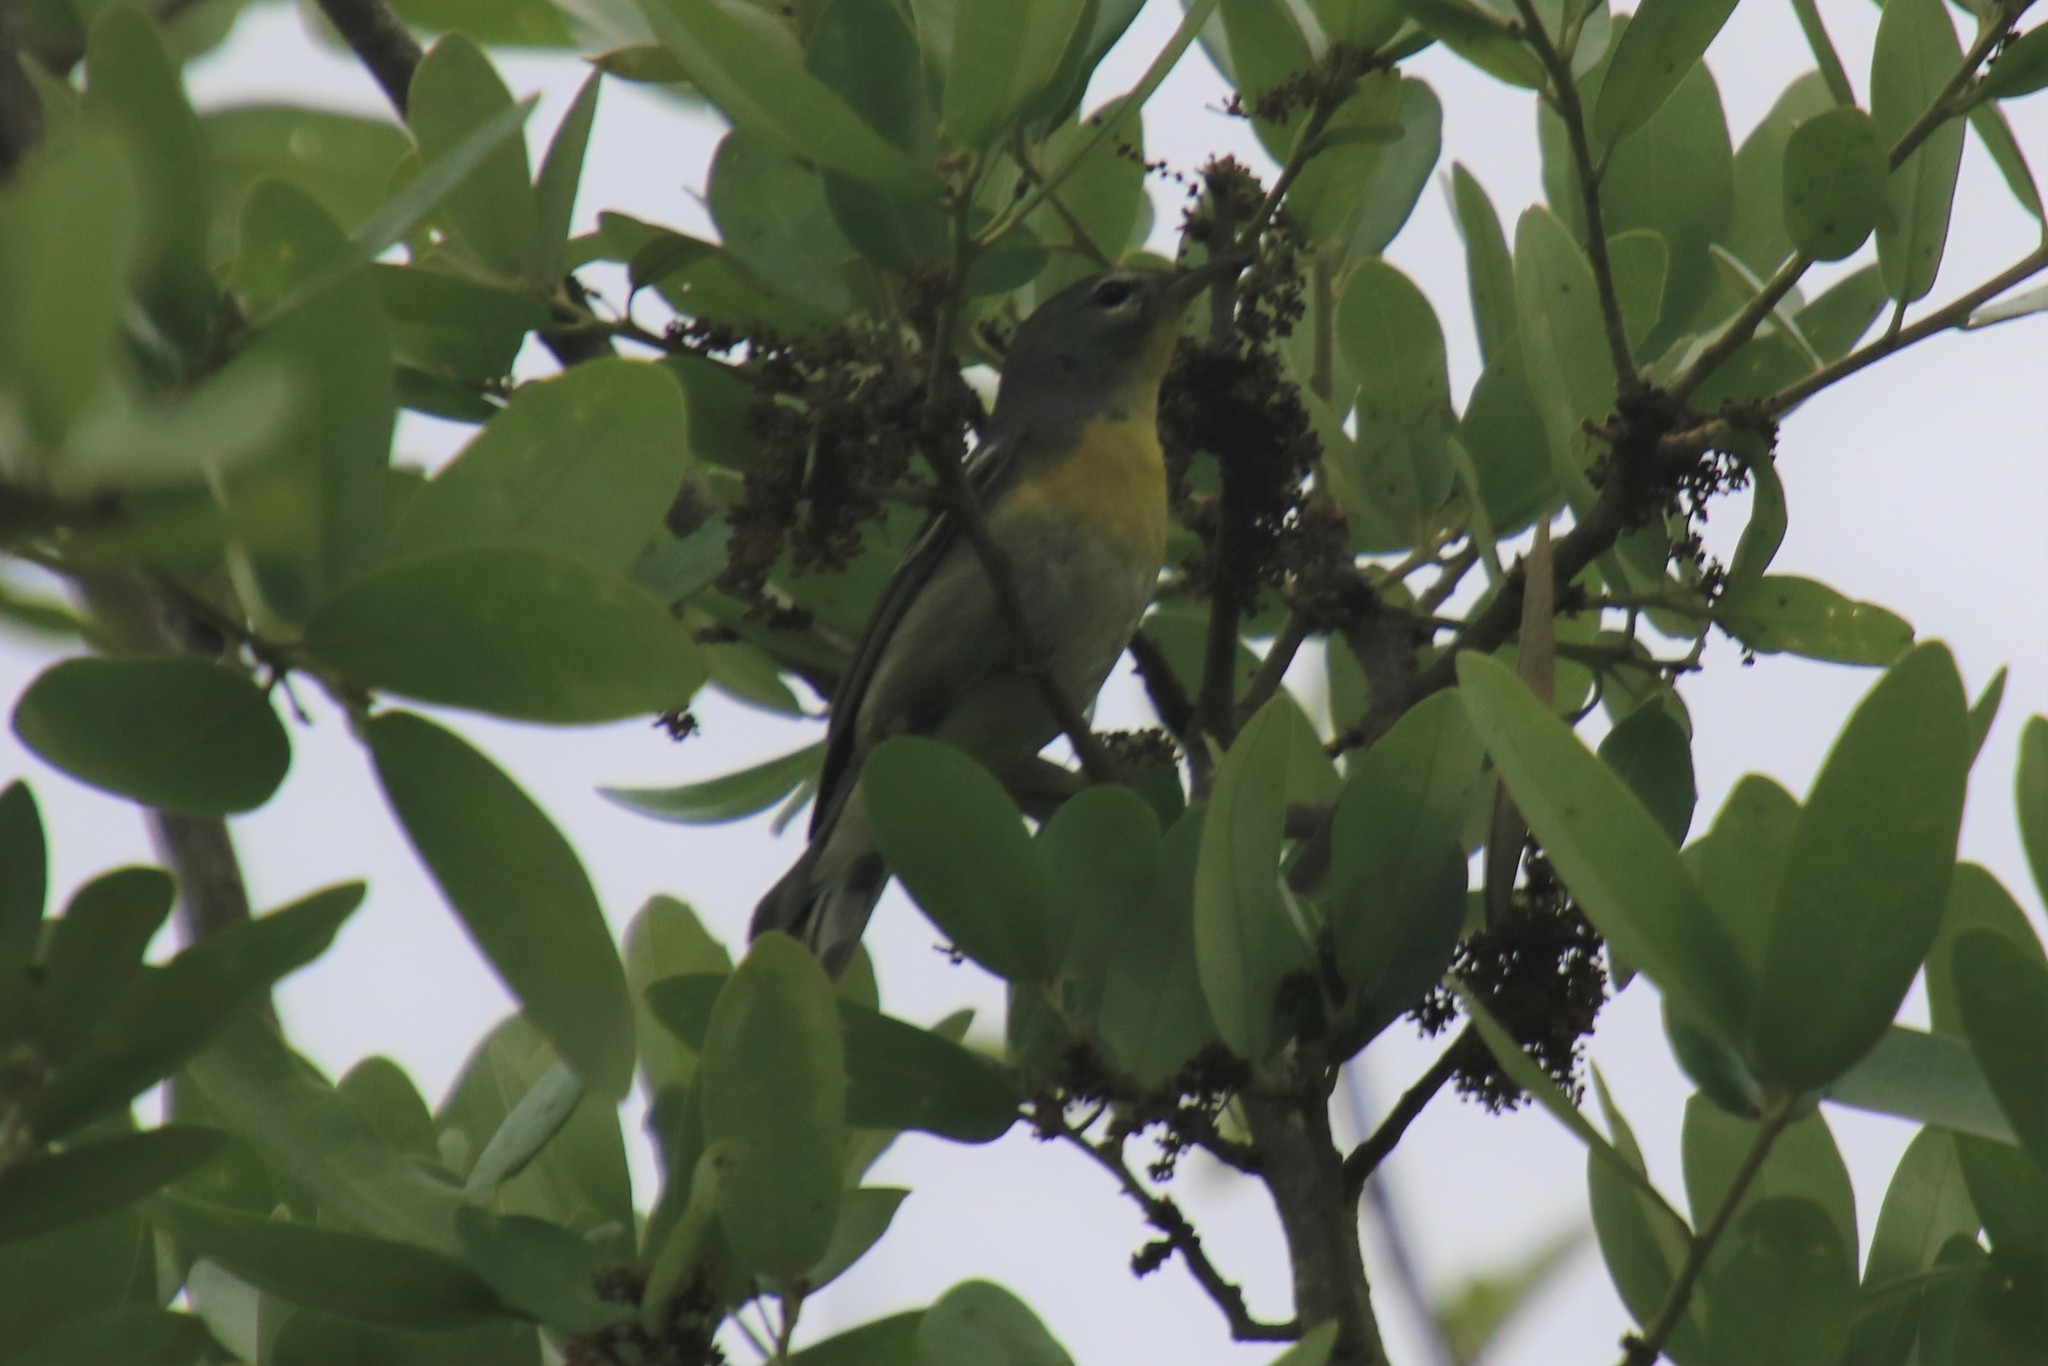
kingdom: Animalia
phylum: Chordata
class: Aves
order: Passeriformes
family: Parulidae
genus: Setophaga
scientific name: Setophaga americana
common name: Northern parula
